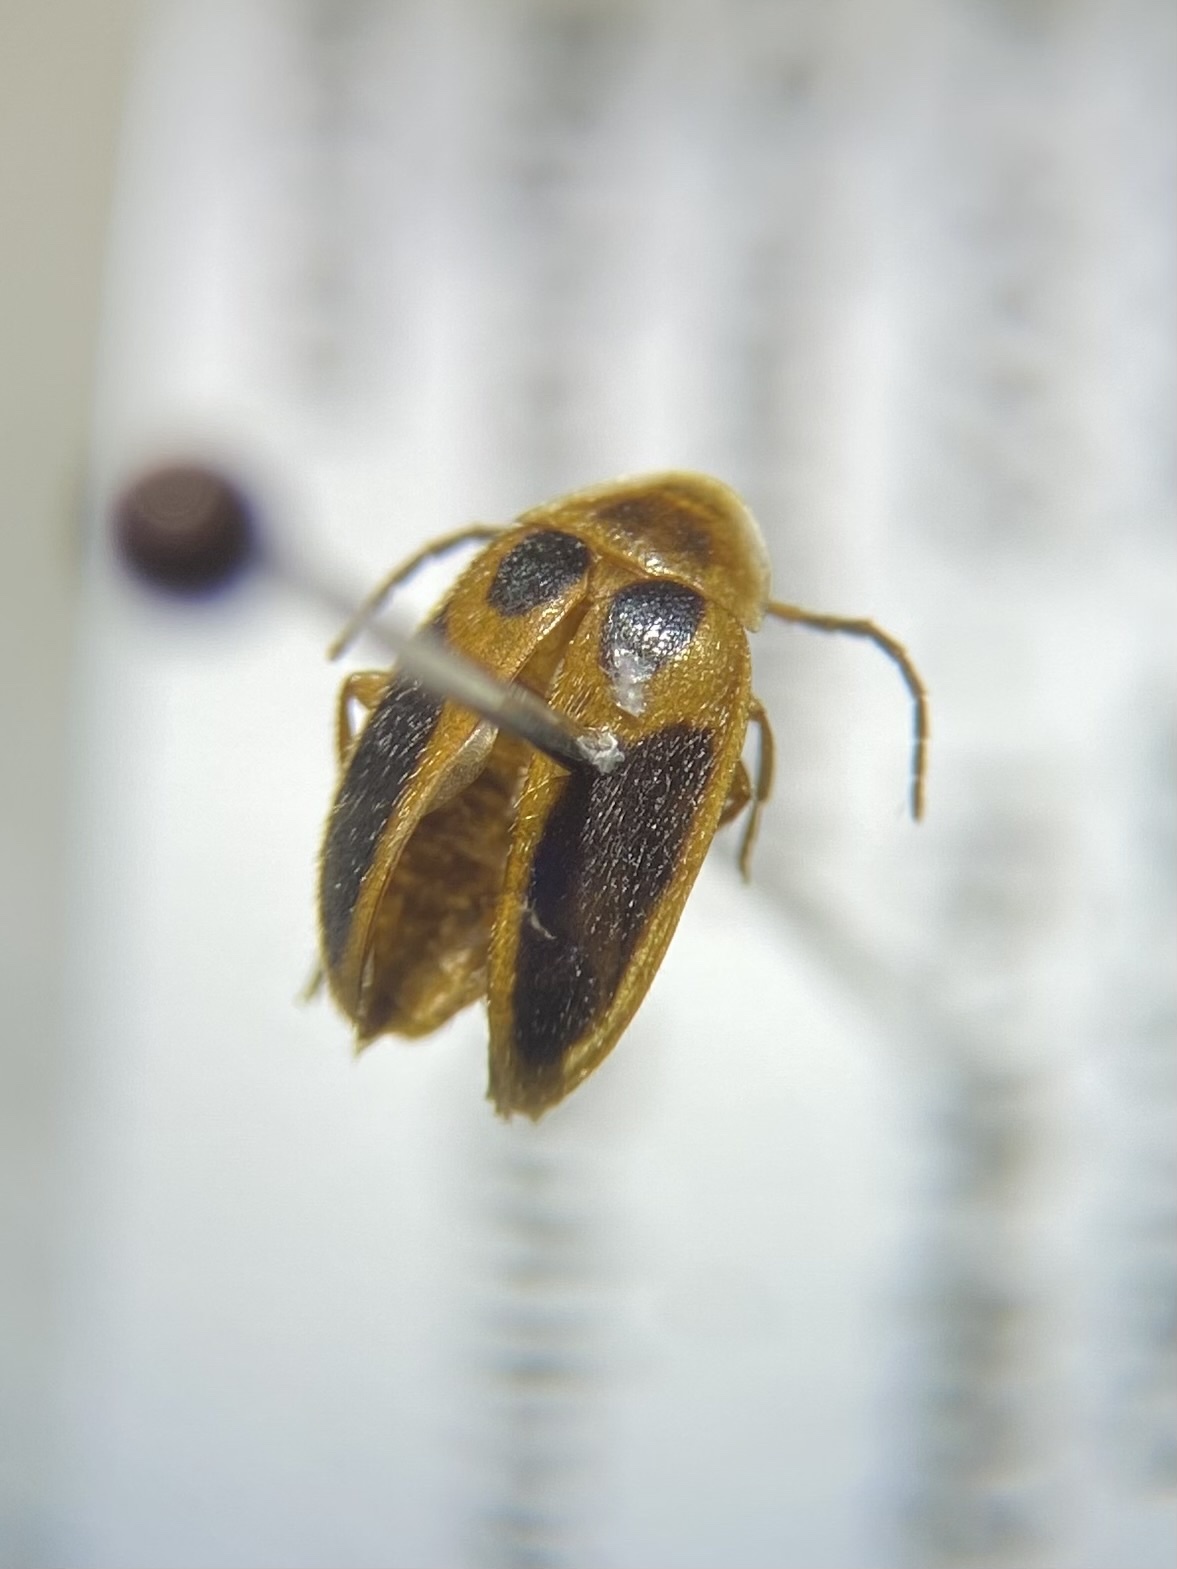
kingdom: Animalia
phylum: Arthropoda
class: Insecta
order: Coleoptera
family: Scirtidae
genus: Sacodes
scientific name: Sacodes pulchella
